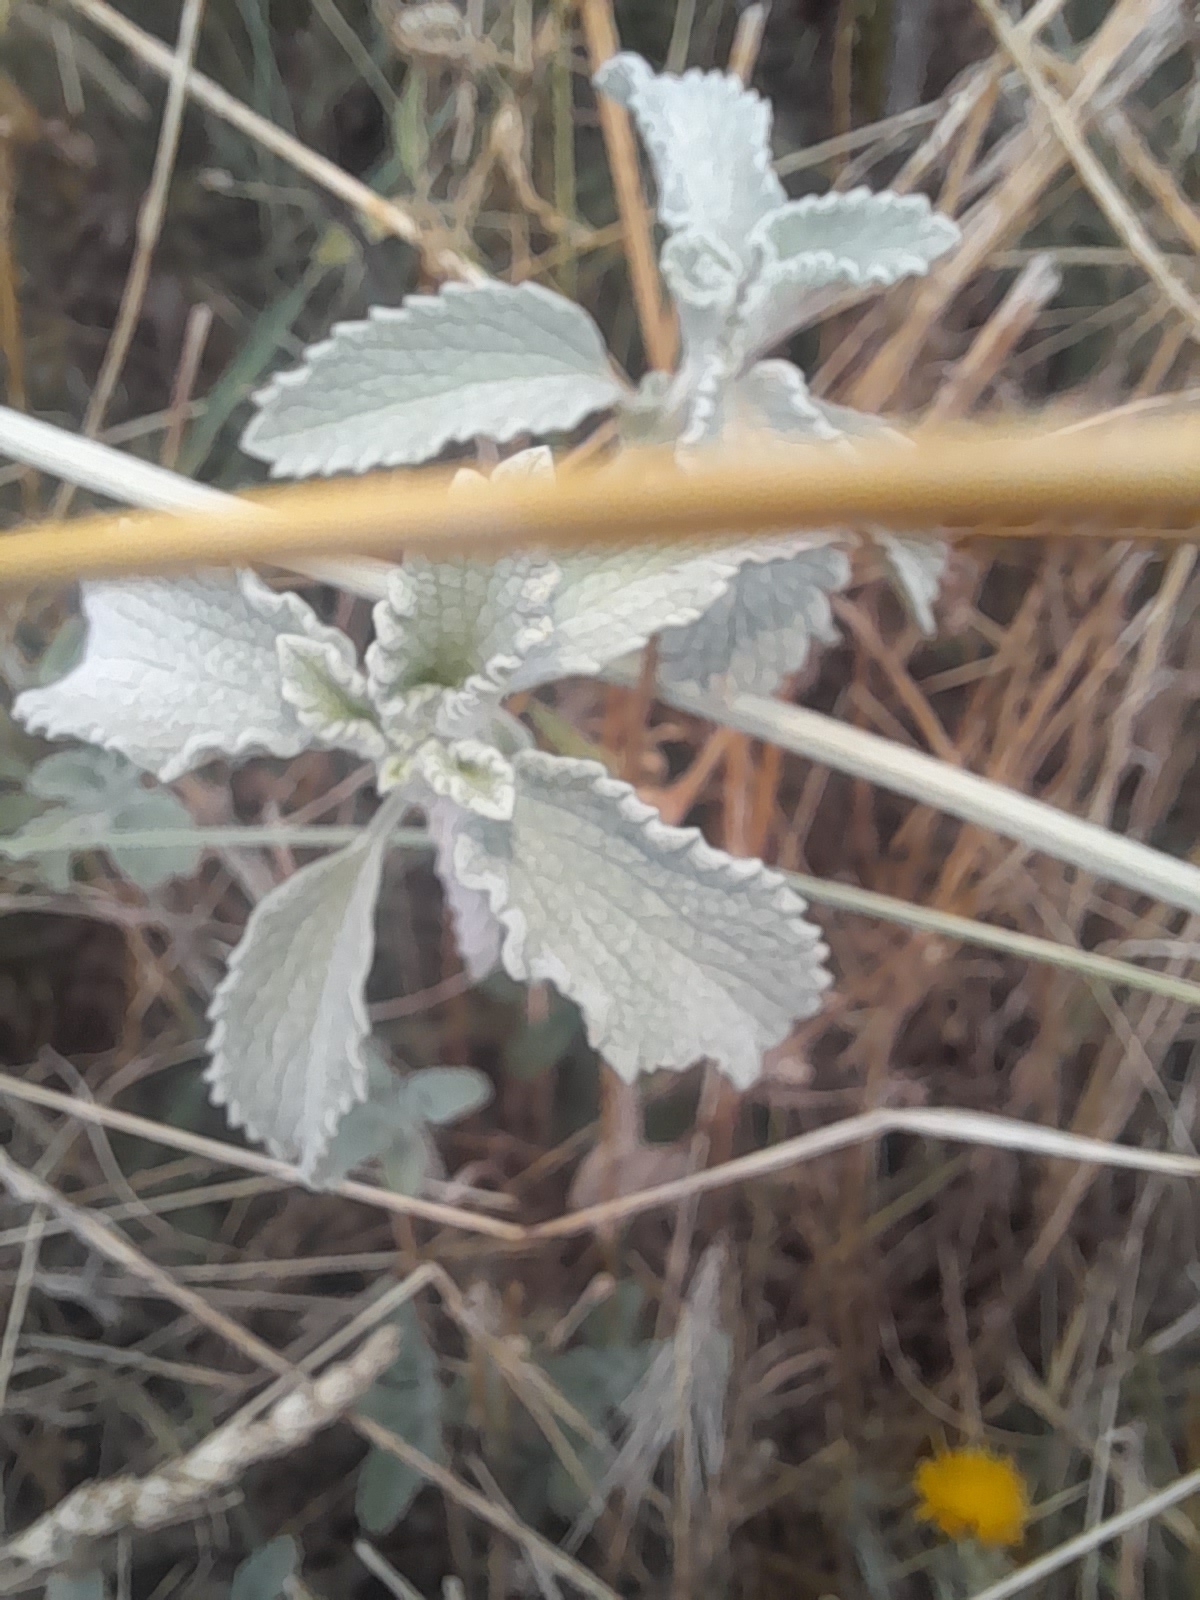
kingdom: Plantae
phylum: Tracheophyta
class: Magnoliopsida
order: Lamiales
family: Lamiaceae
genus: Marrubium
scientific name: Marrubium incanum
